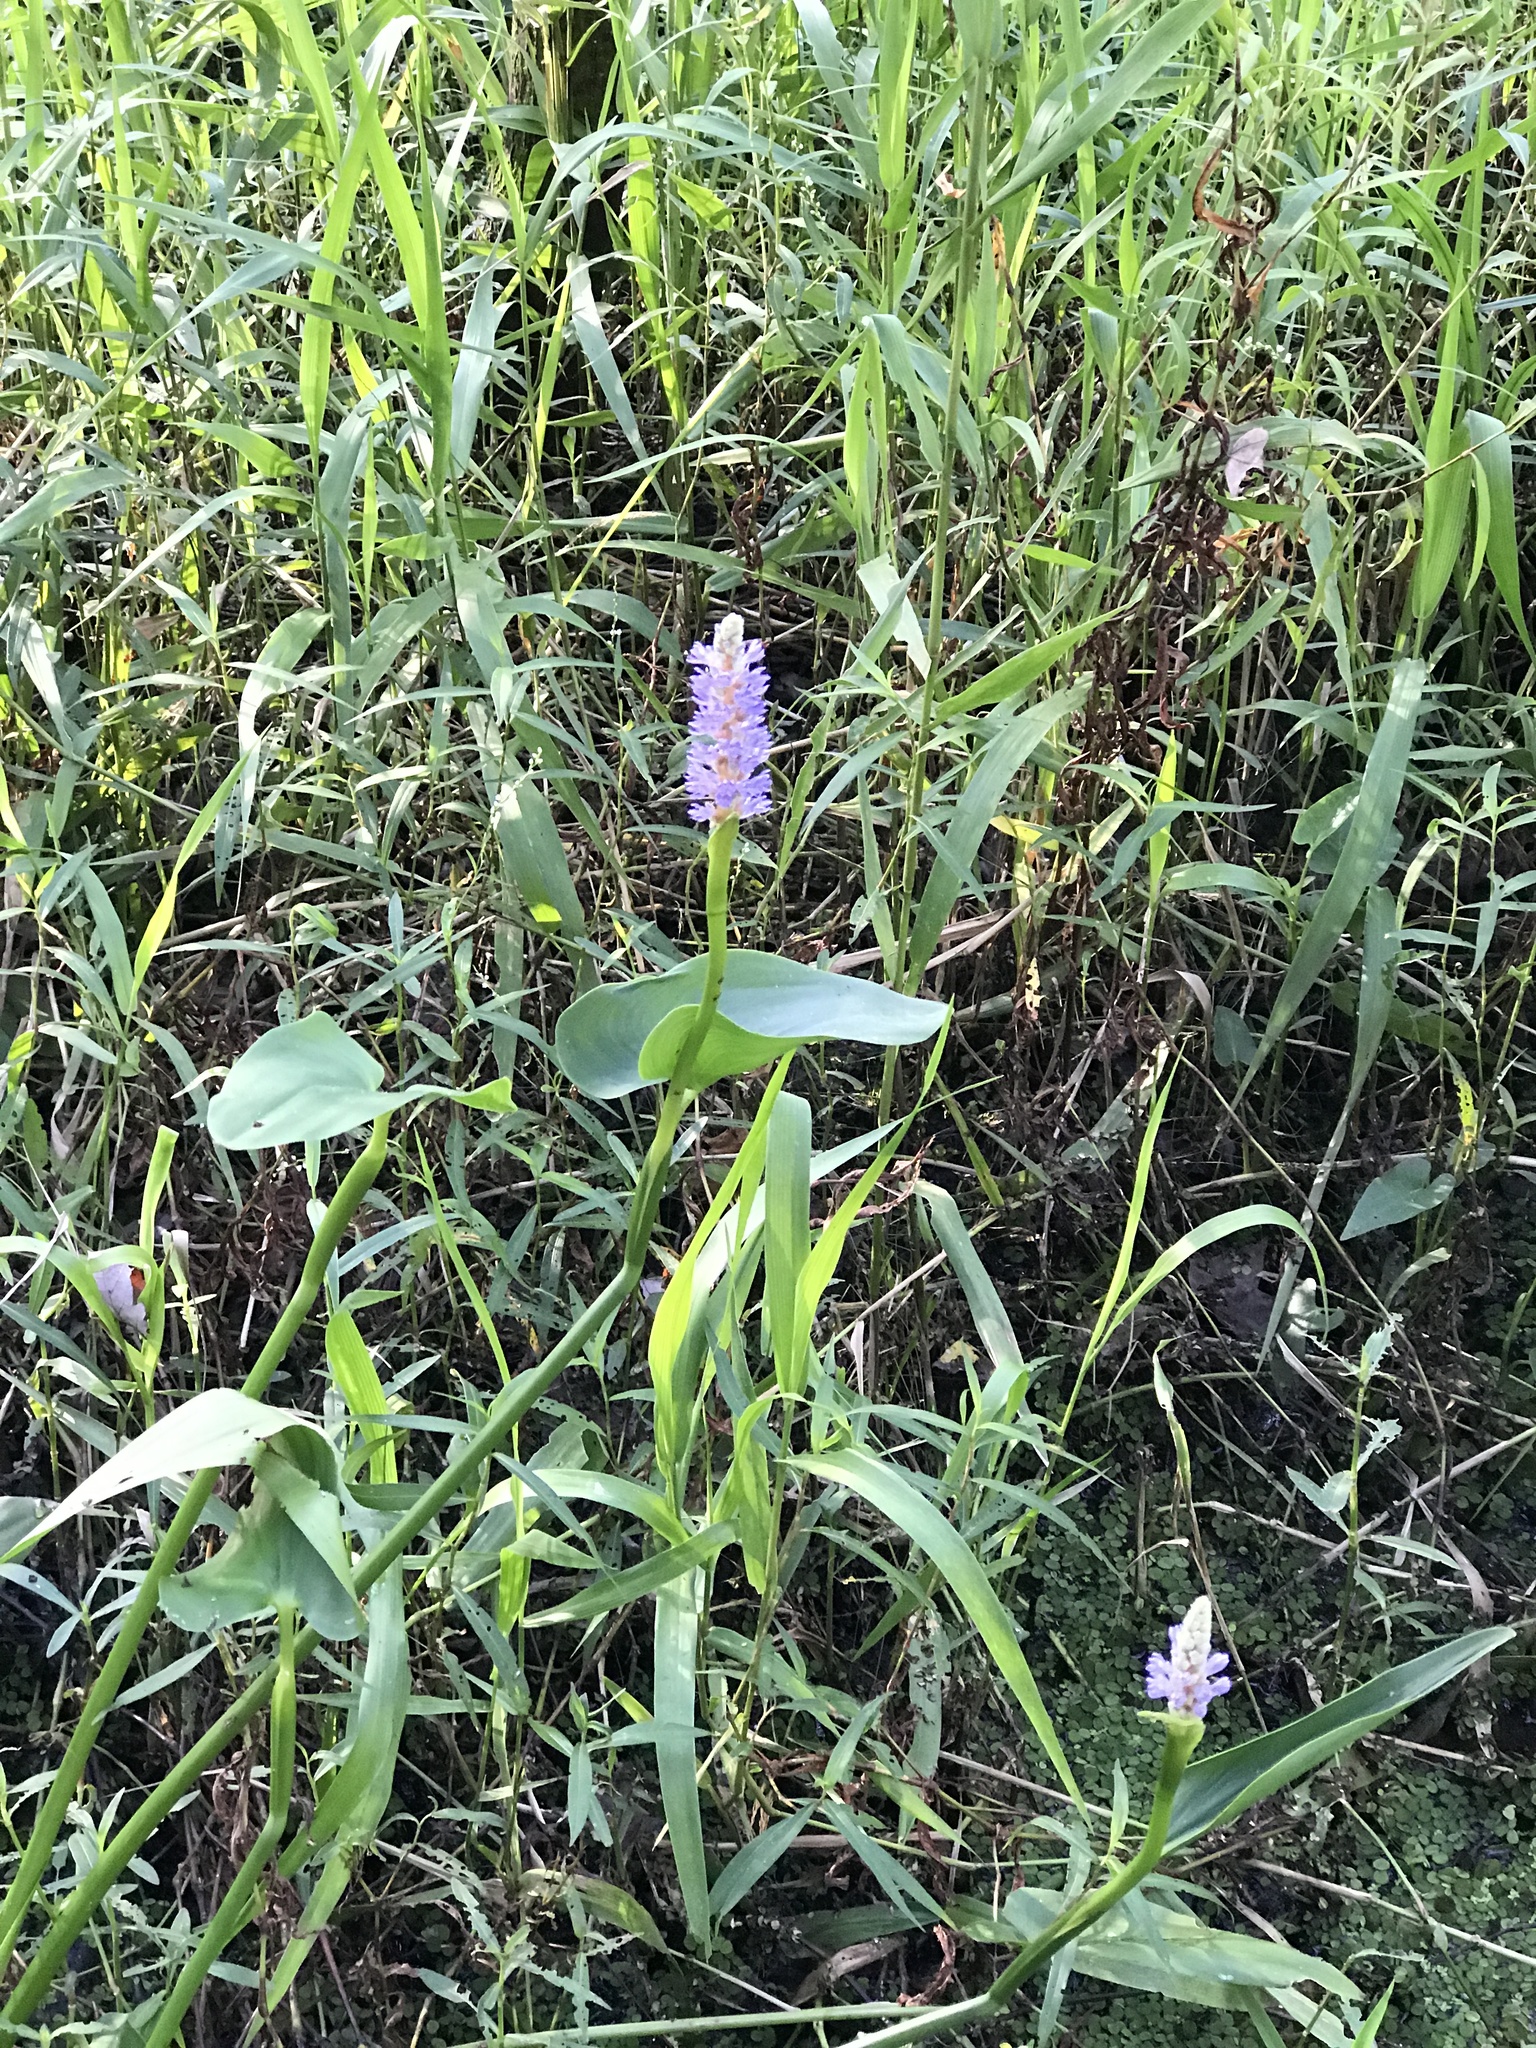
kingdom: Plantae
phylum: Tracheophyta
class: Liliopsida
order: Commelinales
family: Pontederiaceae
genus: Pontederia
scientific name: Pontederia cordata
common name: Pickerelweed
